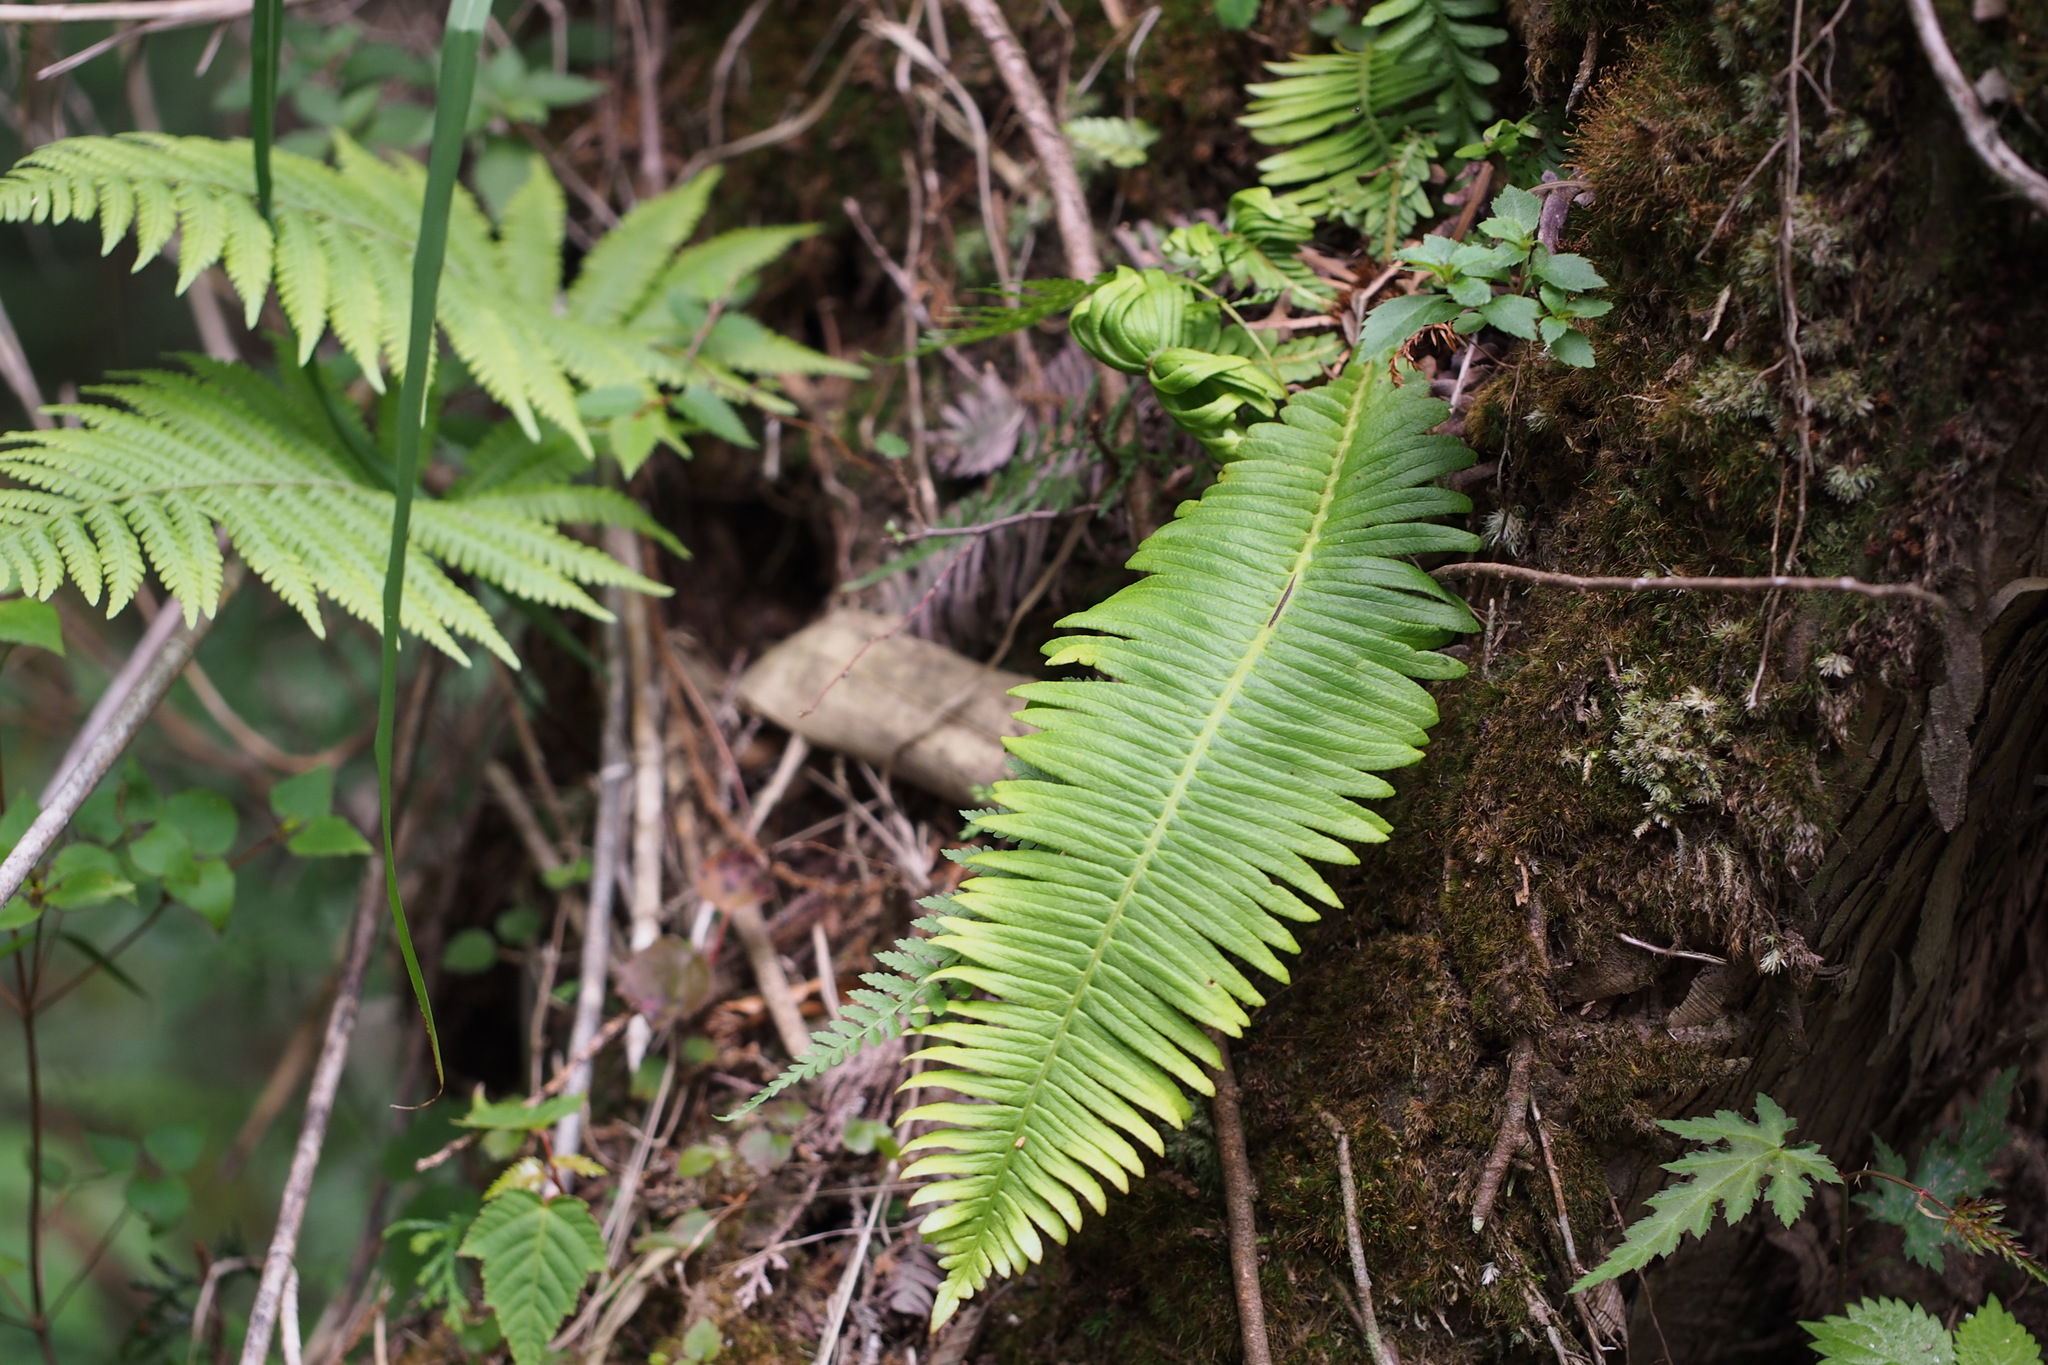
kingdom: Plantae
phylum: Tracheophyta
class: Polypodiopsida
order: Polypodiales
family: Blechnaceae
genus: Spicantopsis
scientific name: Spicantopsis niponica
